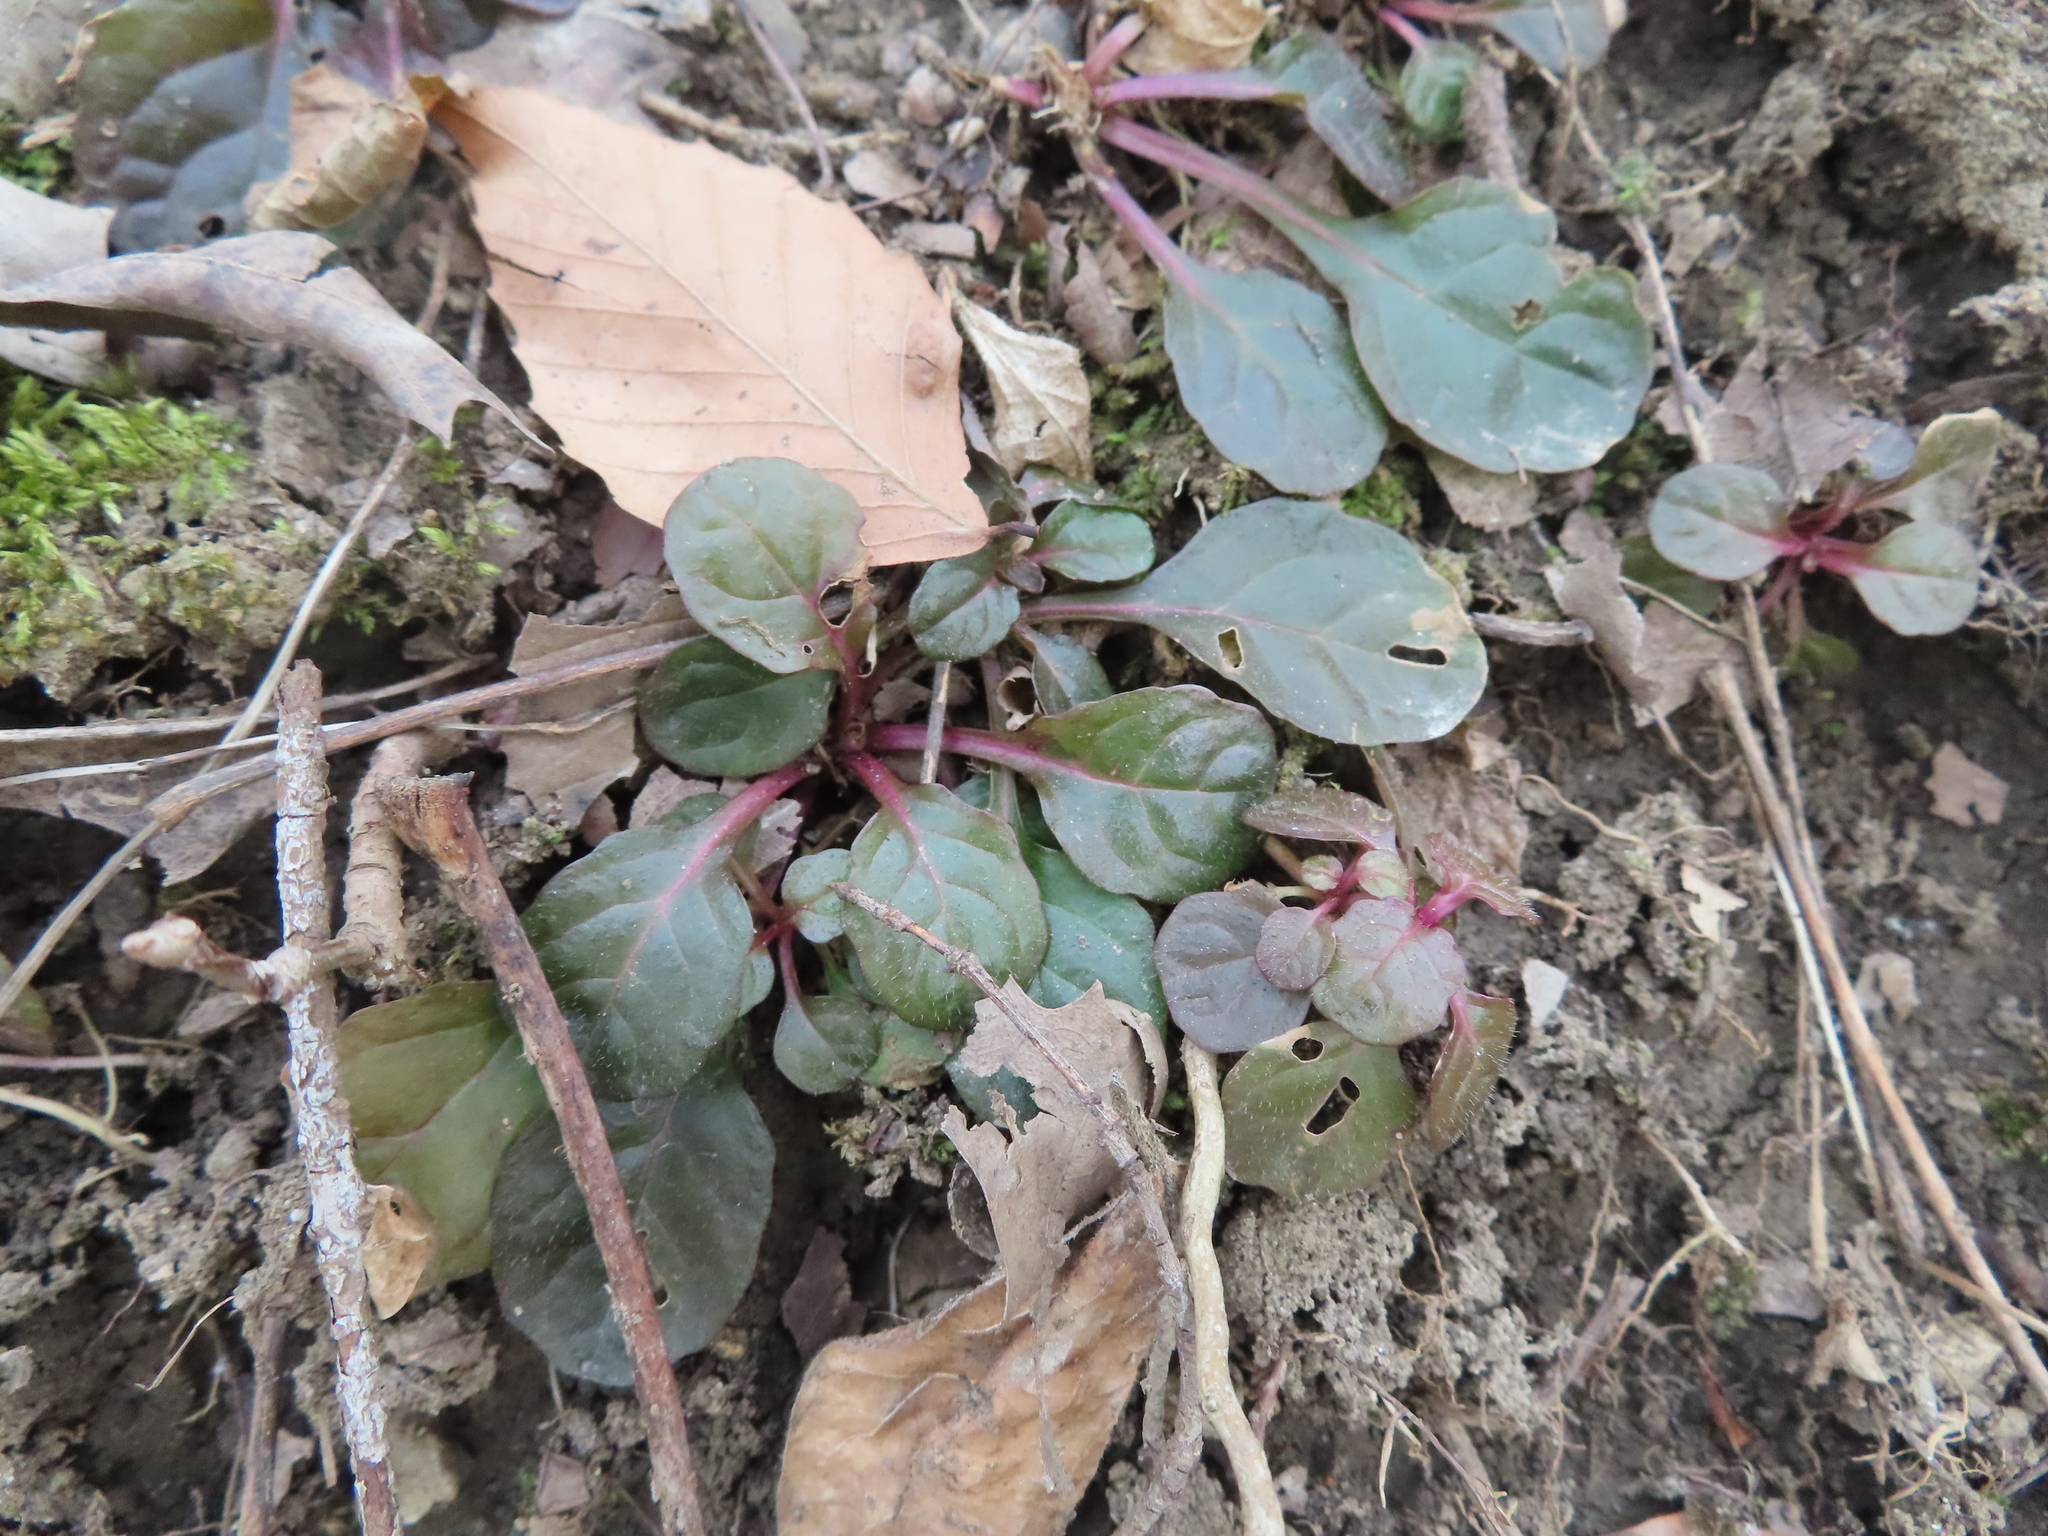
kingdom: Plantae
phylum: Tracheophyta
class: Magnoliopsida
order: Lamiales
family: Lamiaceae
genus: Ajuga
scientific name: Ajuga reptans
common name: Bugle
